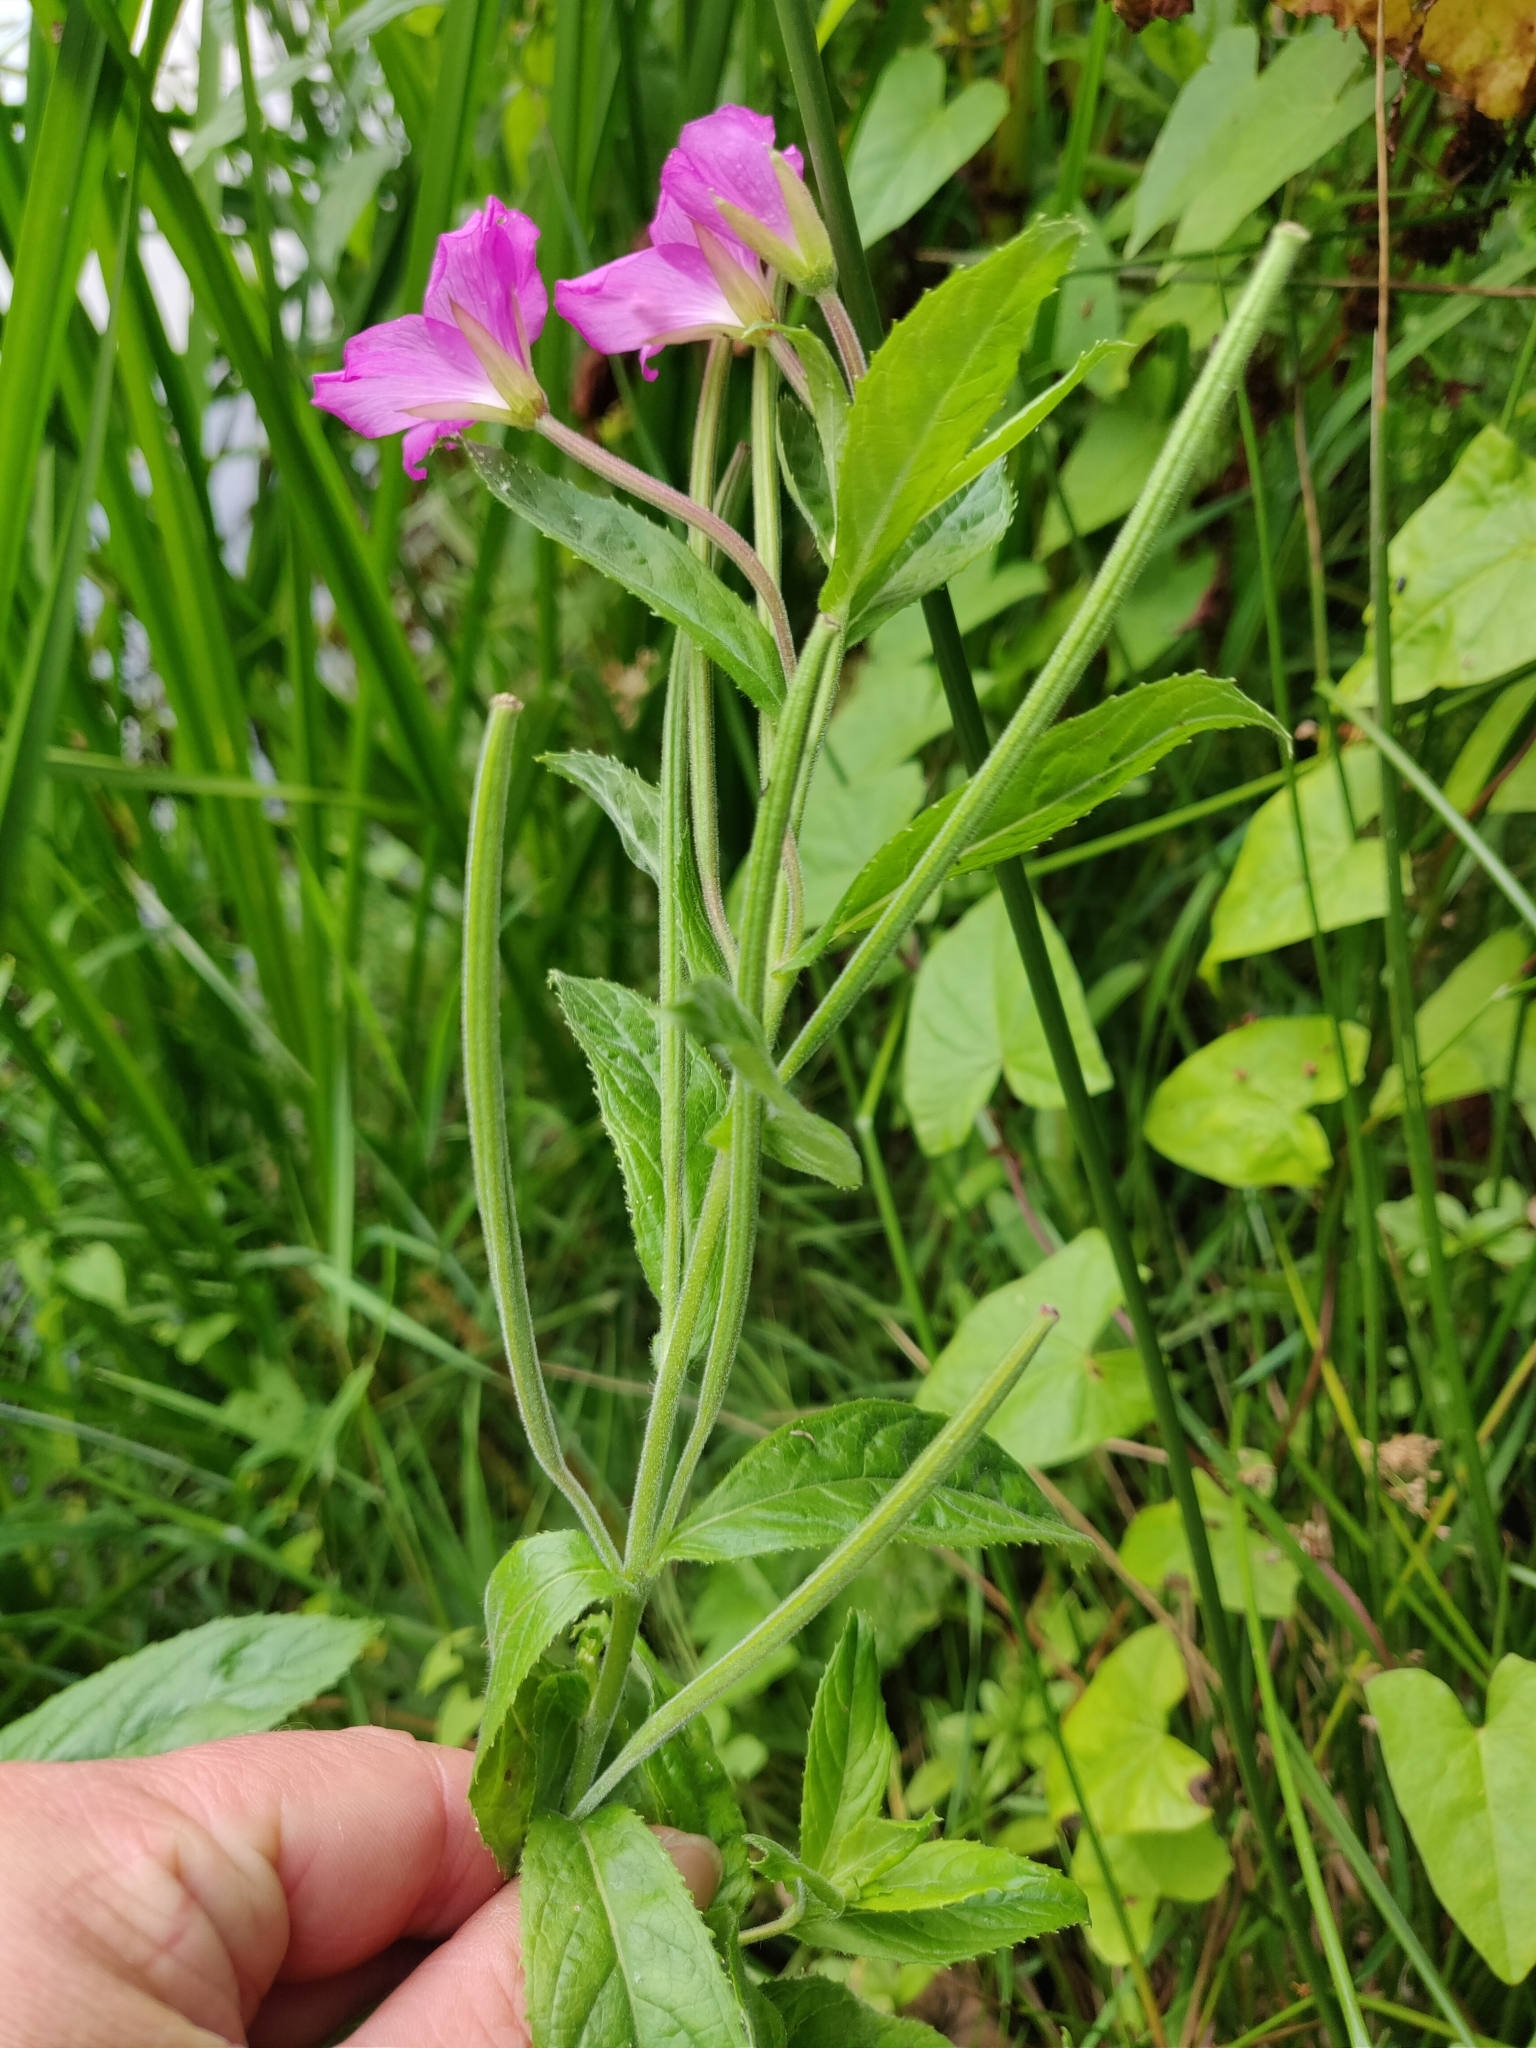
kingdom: Plantae
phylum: Tracheophyta
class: Magnoliopsida
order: Myrtales
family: Onagraceae
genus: Epilobium
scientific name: Epilobium hirsutum
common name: Great willowherb
